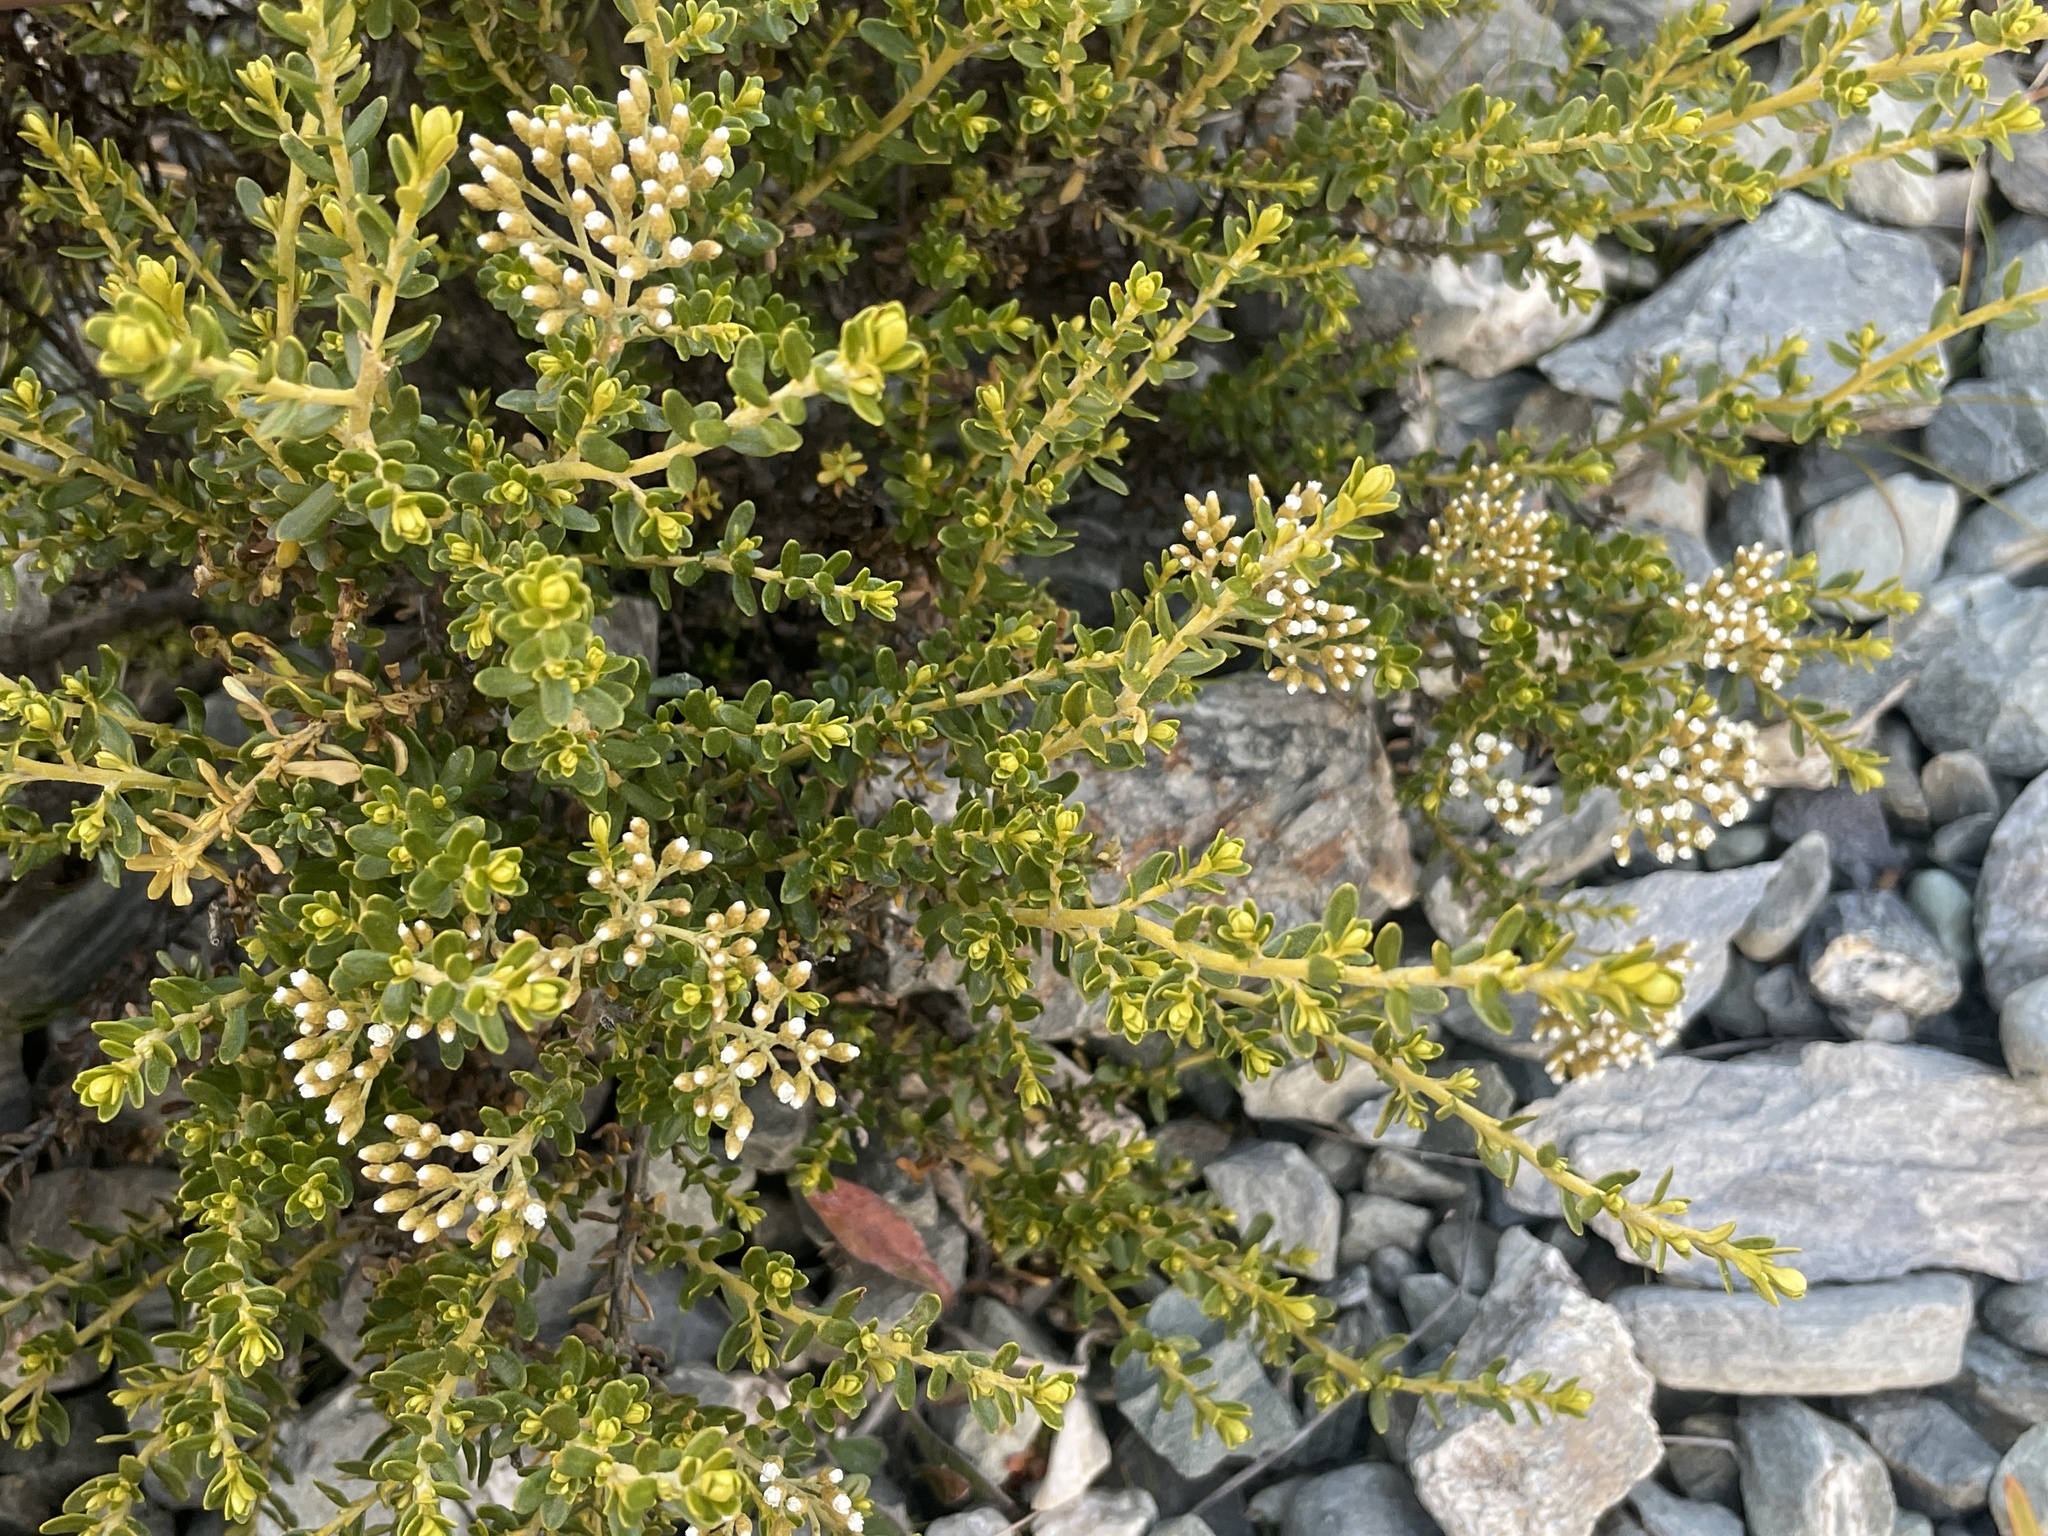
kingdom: Plantae
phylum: Tracheophyta
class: Magnoliopsida
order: Asterales
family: Asteraceae
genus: Ozothamnus
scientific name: Ozothamnus leptophyllus
